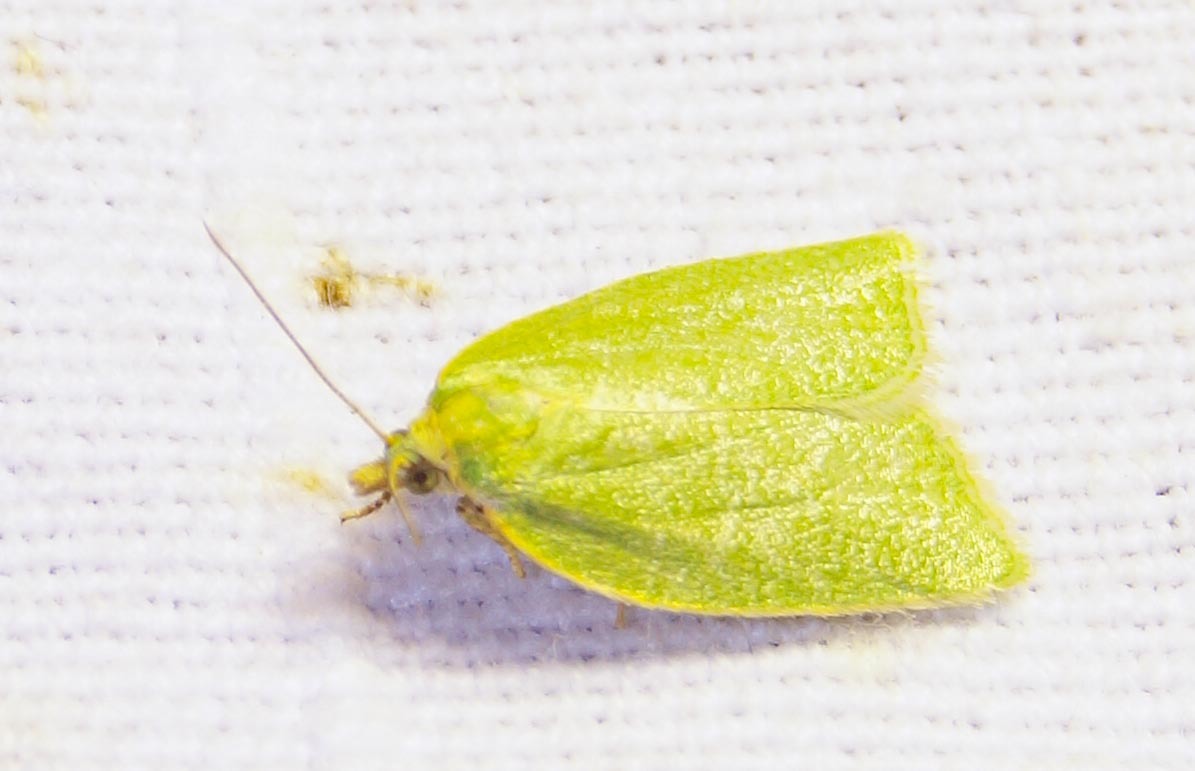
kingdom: Animalia
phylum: Arthropoda
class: Insecta
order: Lepidoptera
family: Tortricidae
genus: Tortrix
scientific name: Tortrix viridana
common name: Green oak tortrix
